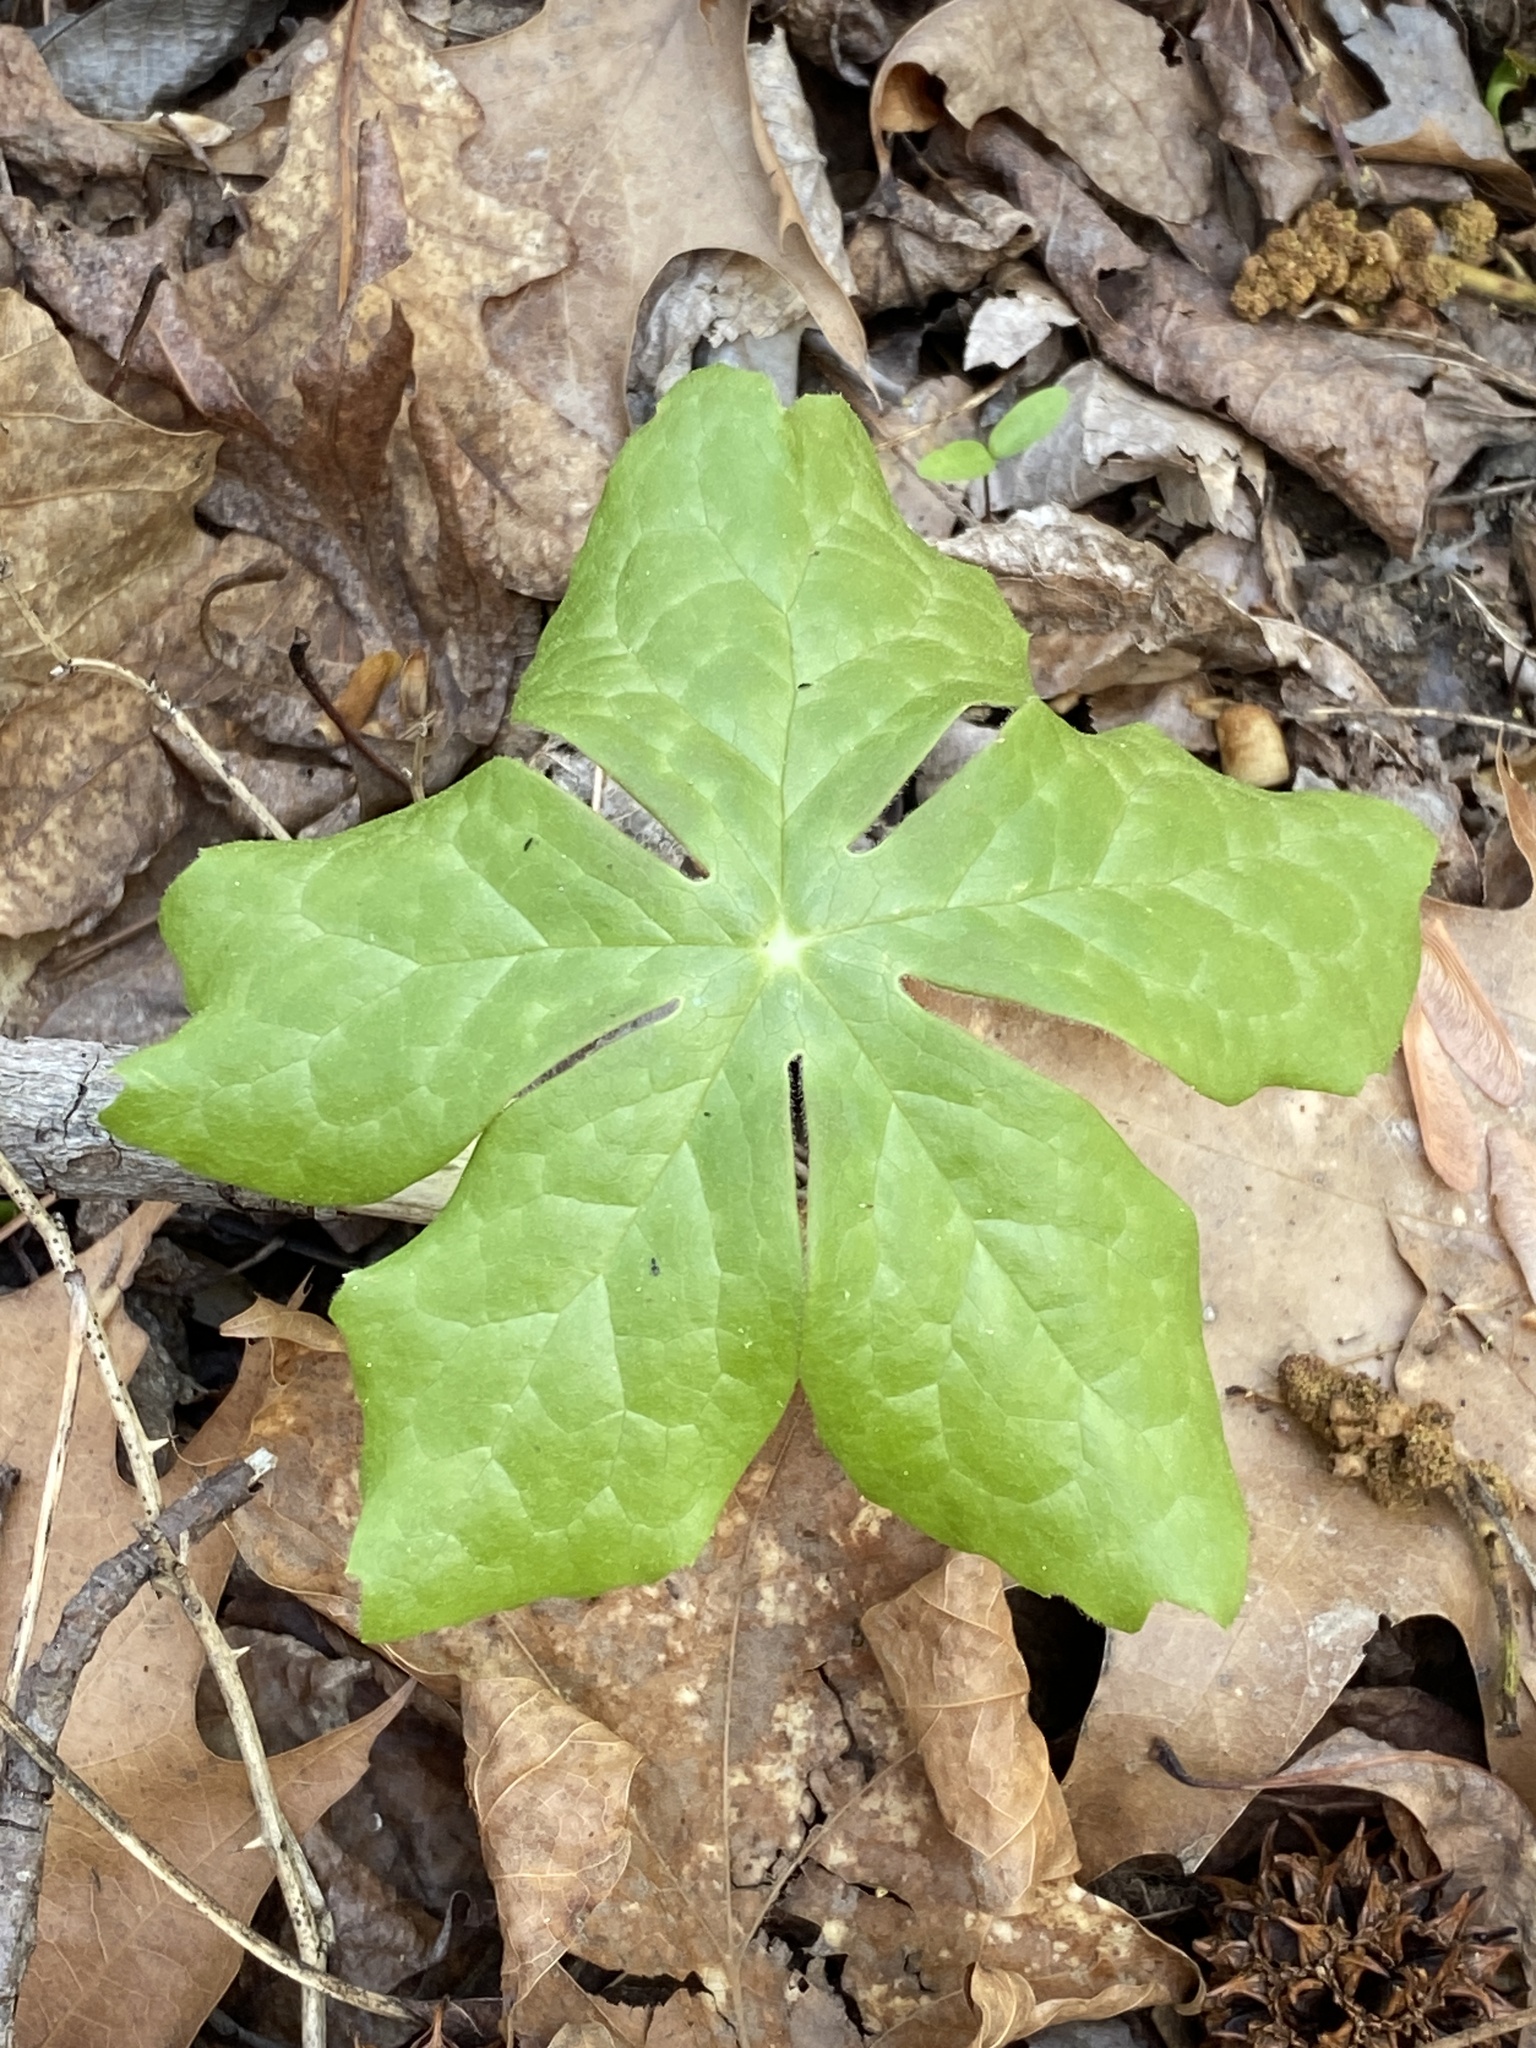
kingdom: Plantae
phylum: Tracheophyta
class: Magnoliopsida
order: Ranunculales
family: Berberidaceae
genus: Podophyllum
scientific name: Podophyllum peltatum
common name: Wild mandrake
